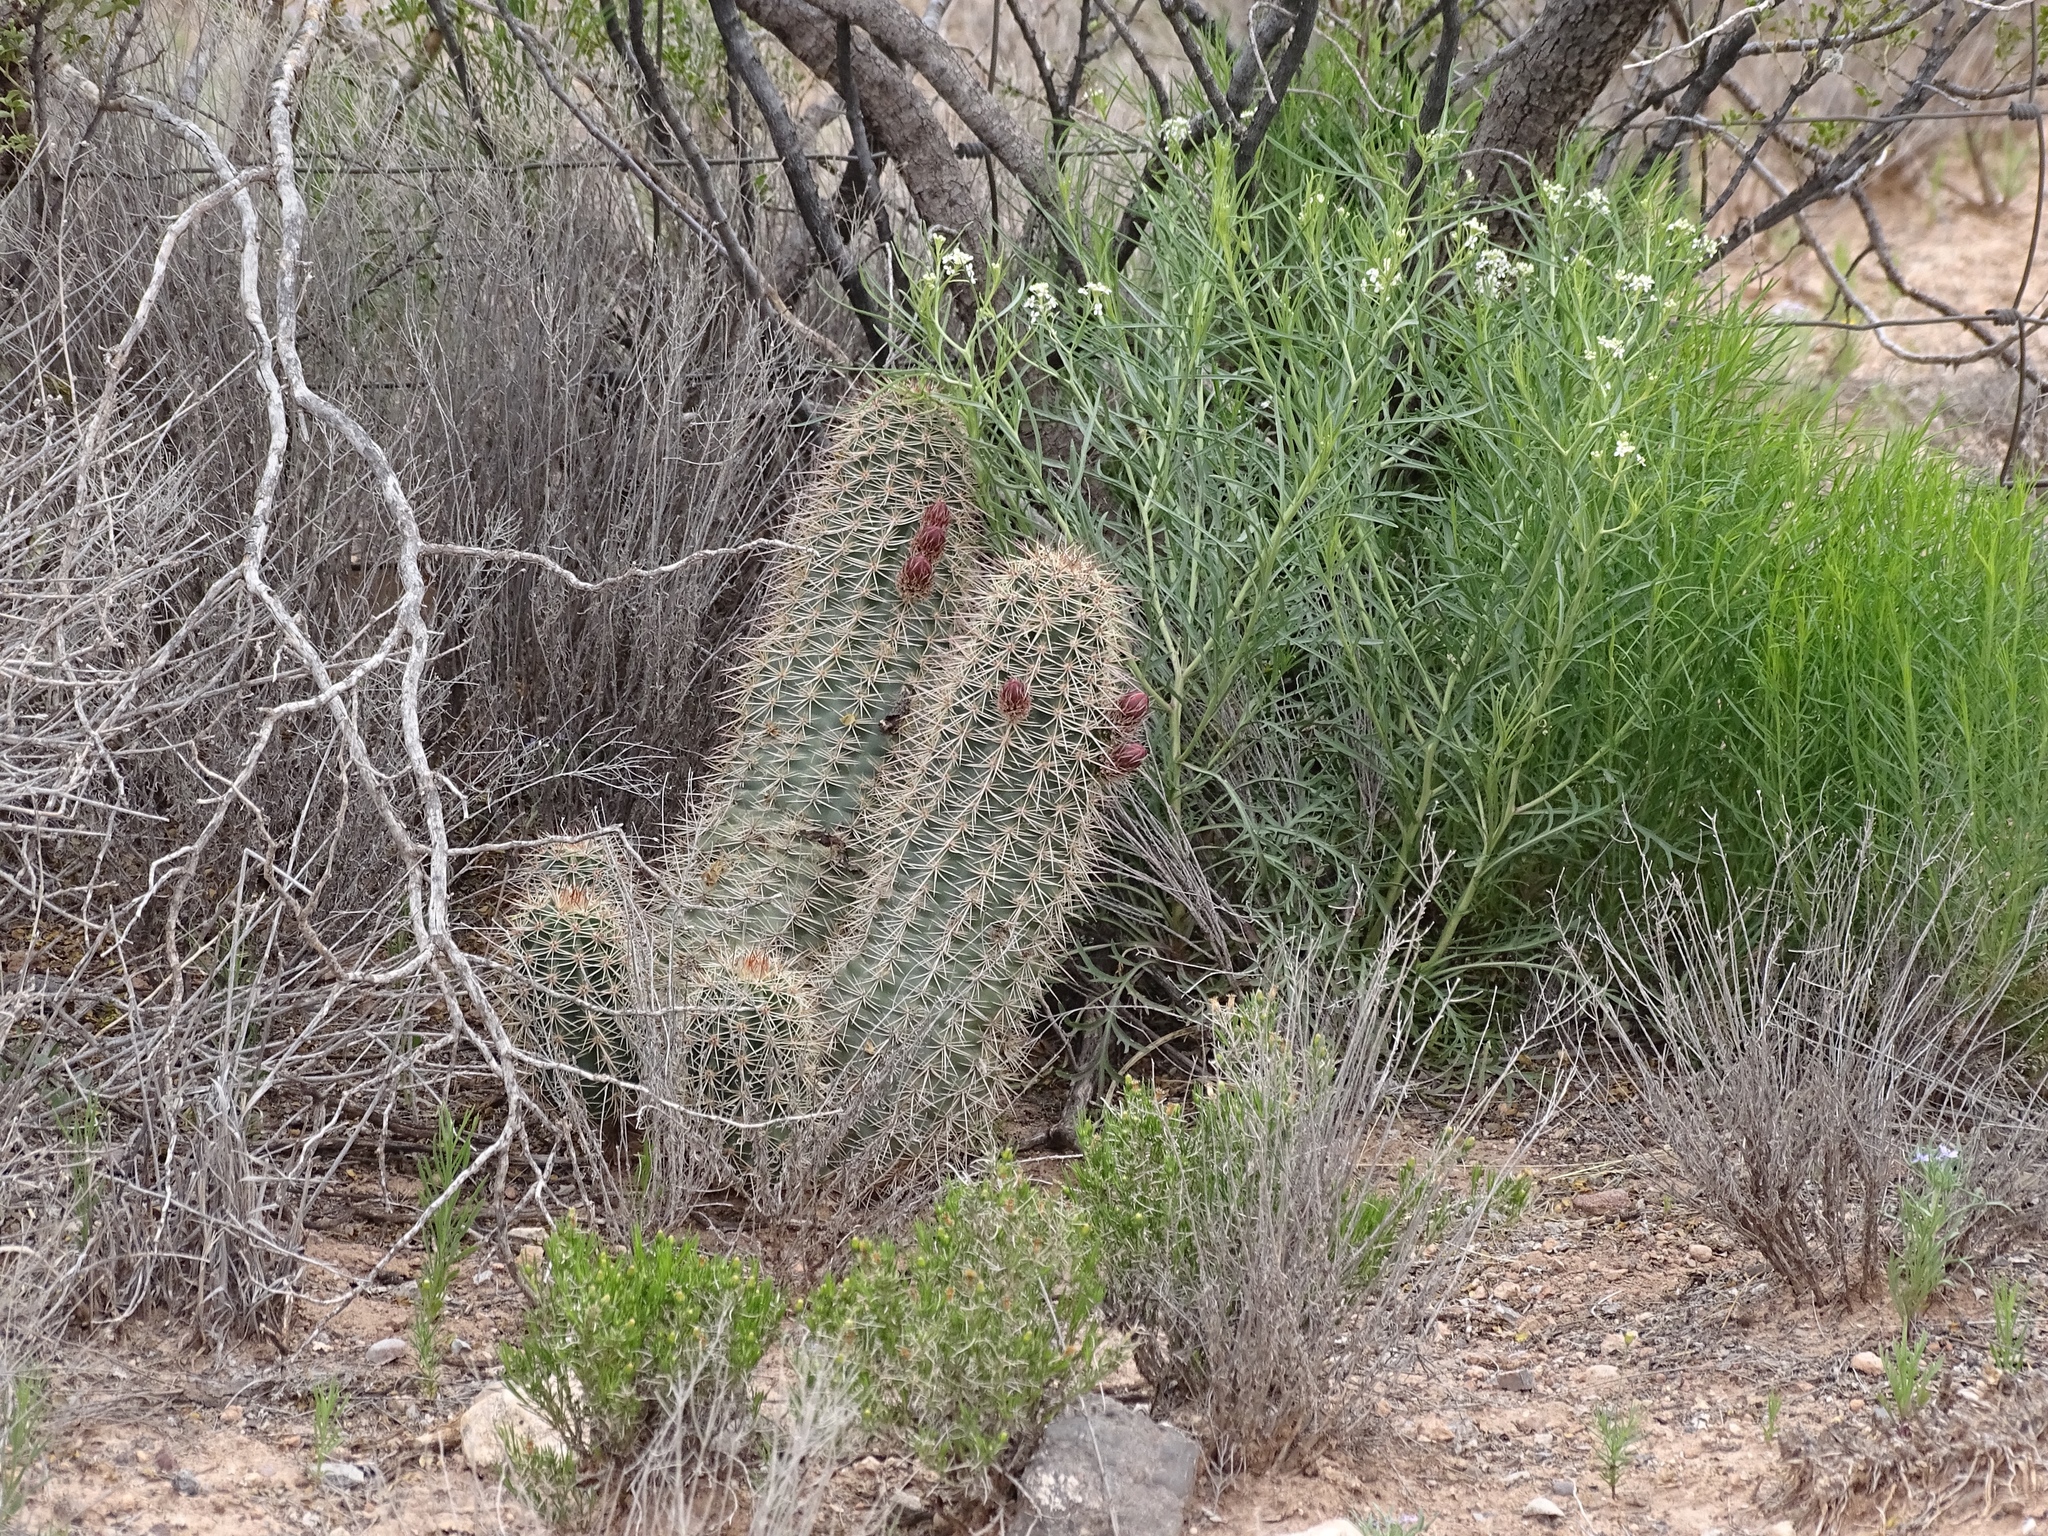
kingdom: Plantae
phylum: Tracheophyta
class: Magnoliopsida
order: Caryophyllales
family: Cactaceae
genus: Echinocereus
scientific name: Echinocereus coccineus
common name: Scarlet hedgehog cactus
